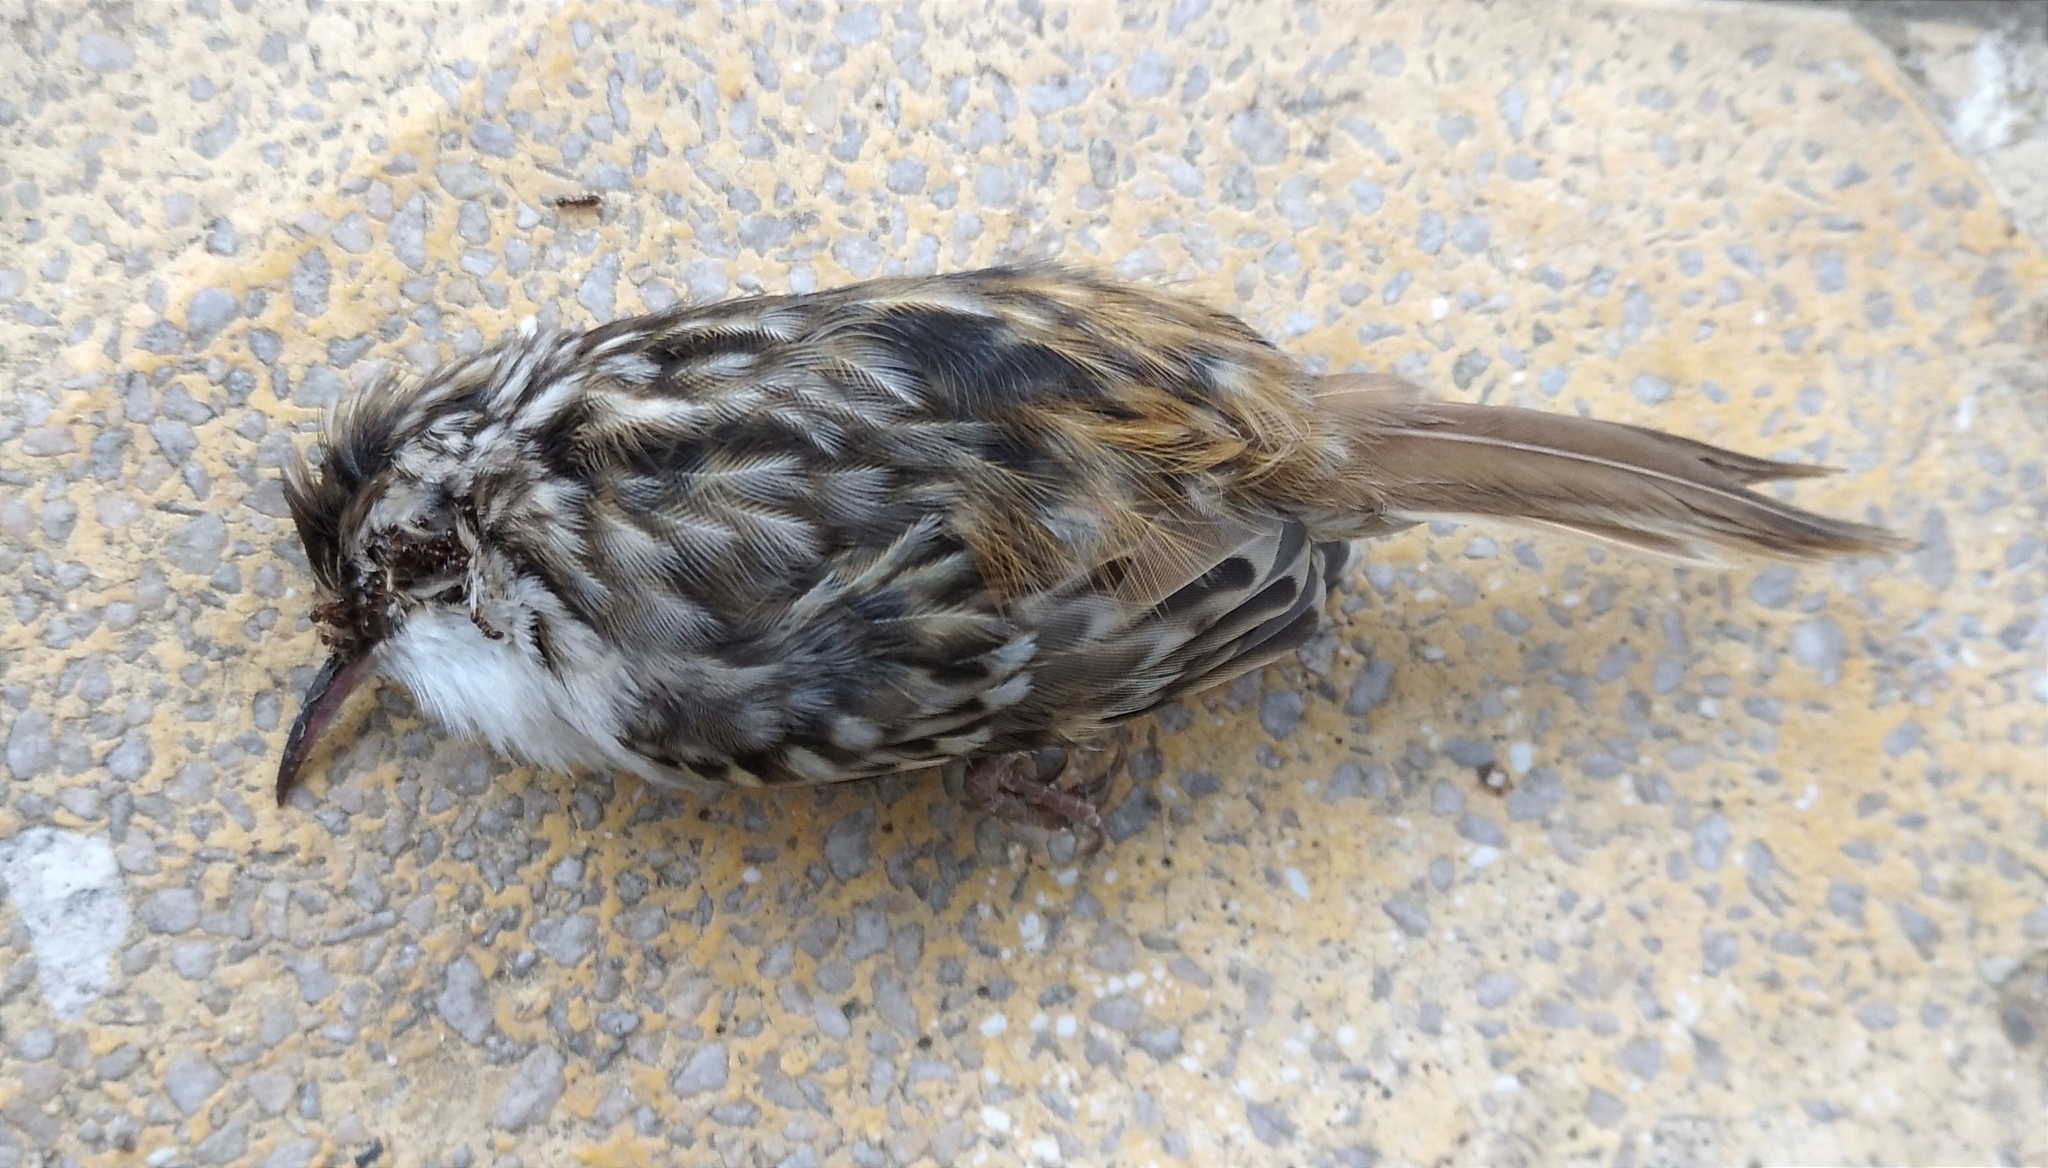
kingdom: Animalia
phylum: Chordata
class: Aves
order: Passeriformes
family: Certhiidae
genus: Certhia
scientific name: Certhia brachydactyla
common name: Short-toed treecreeper
